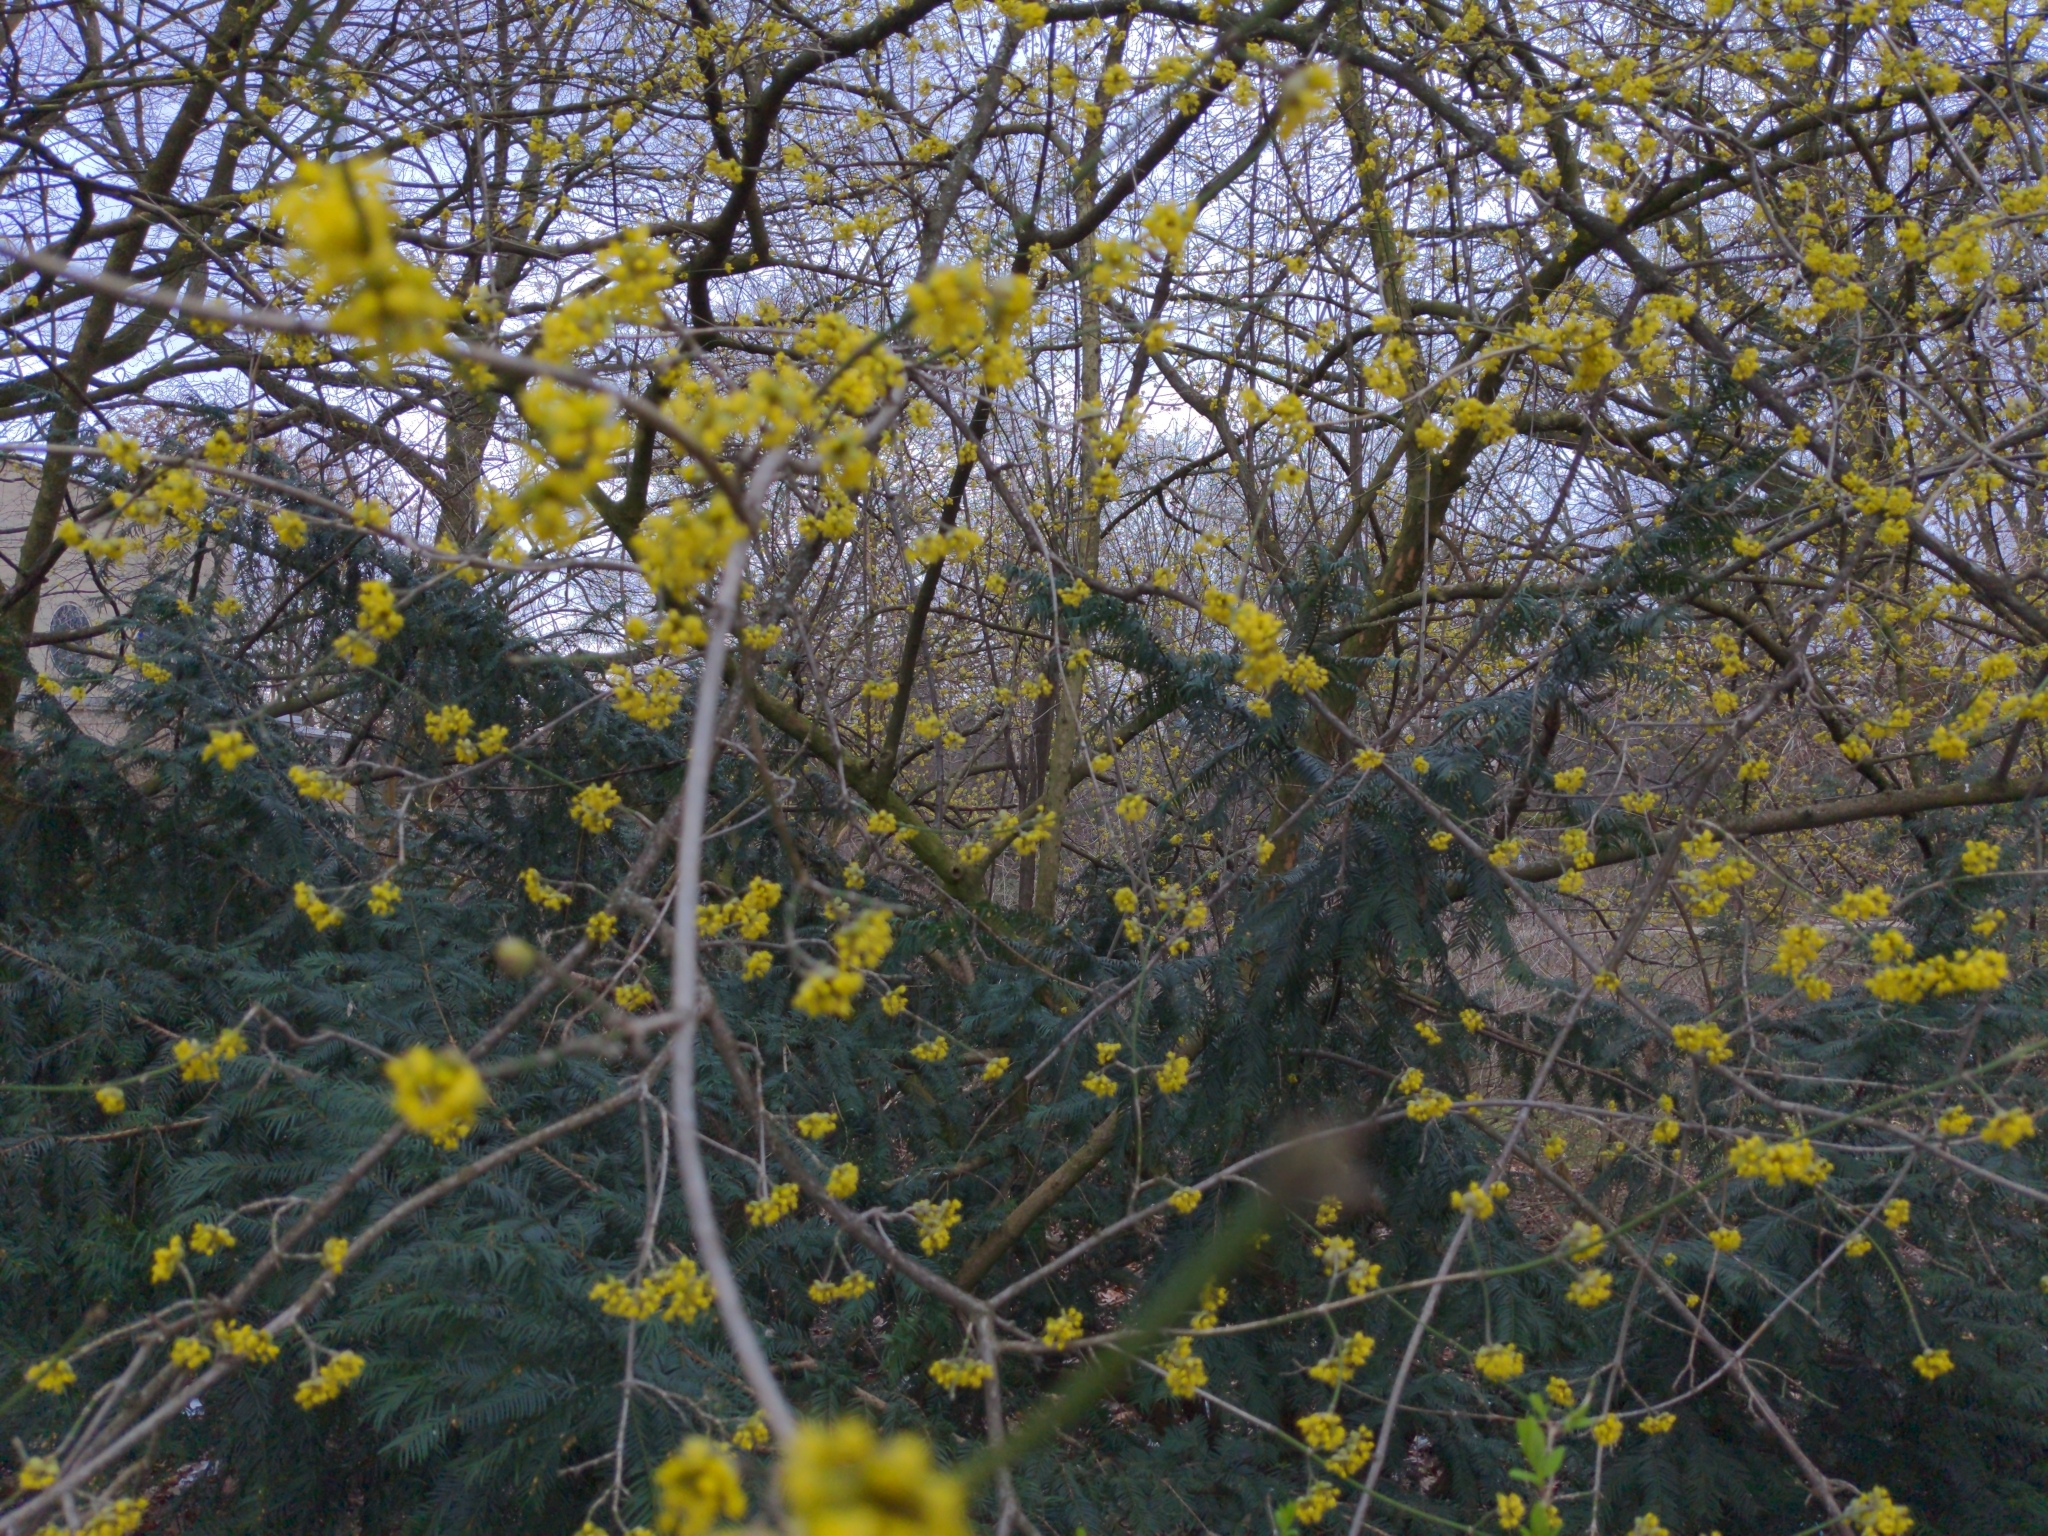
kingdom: Plantae
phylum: Tracheophyta
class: Magnoliopsida
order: Cornales
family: Cornaceae
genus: Cornus
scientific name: Cornus mas
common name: Cornelian-cherry
